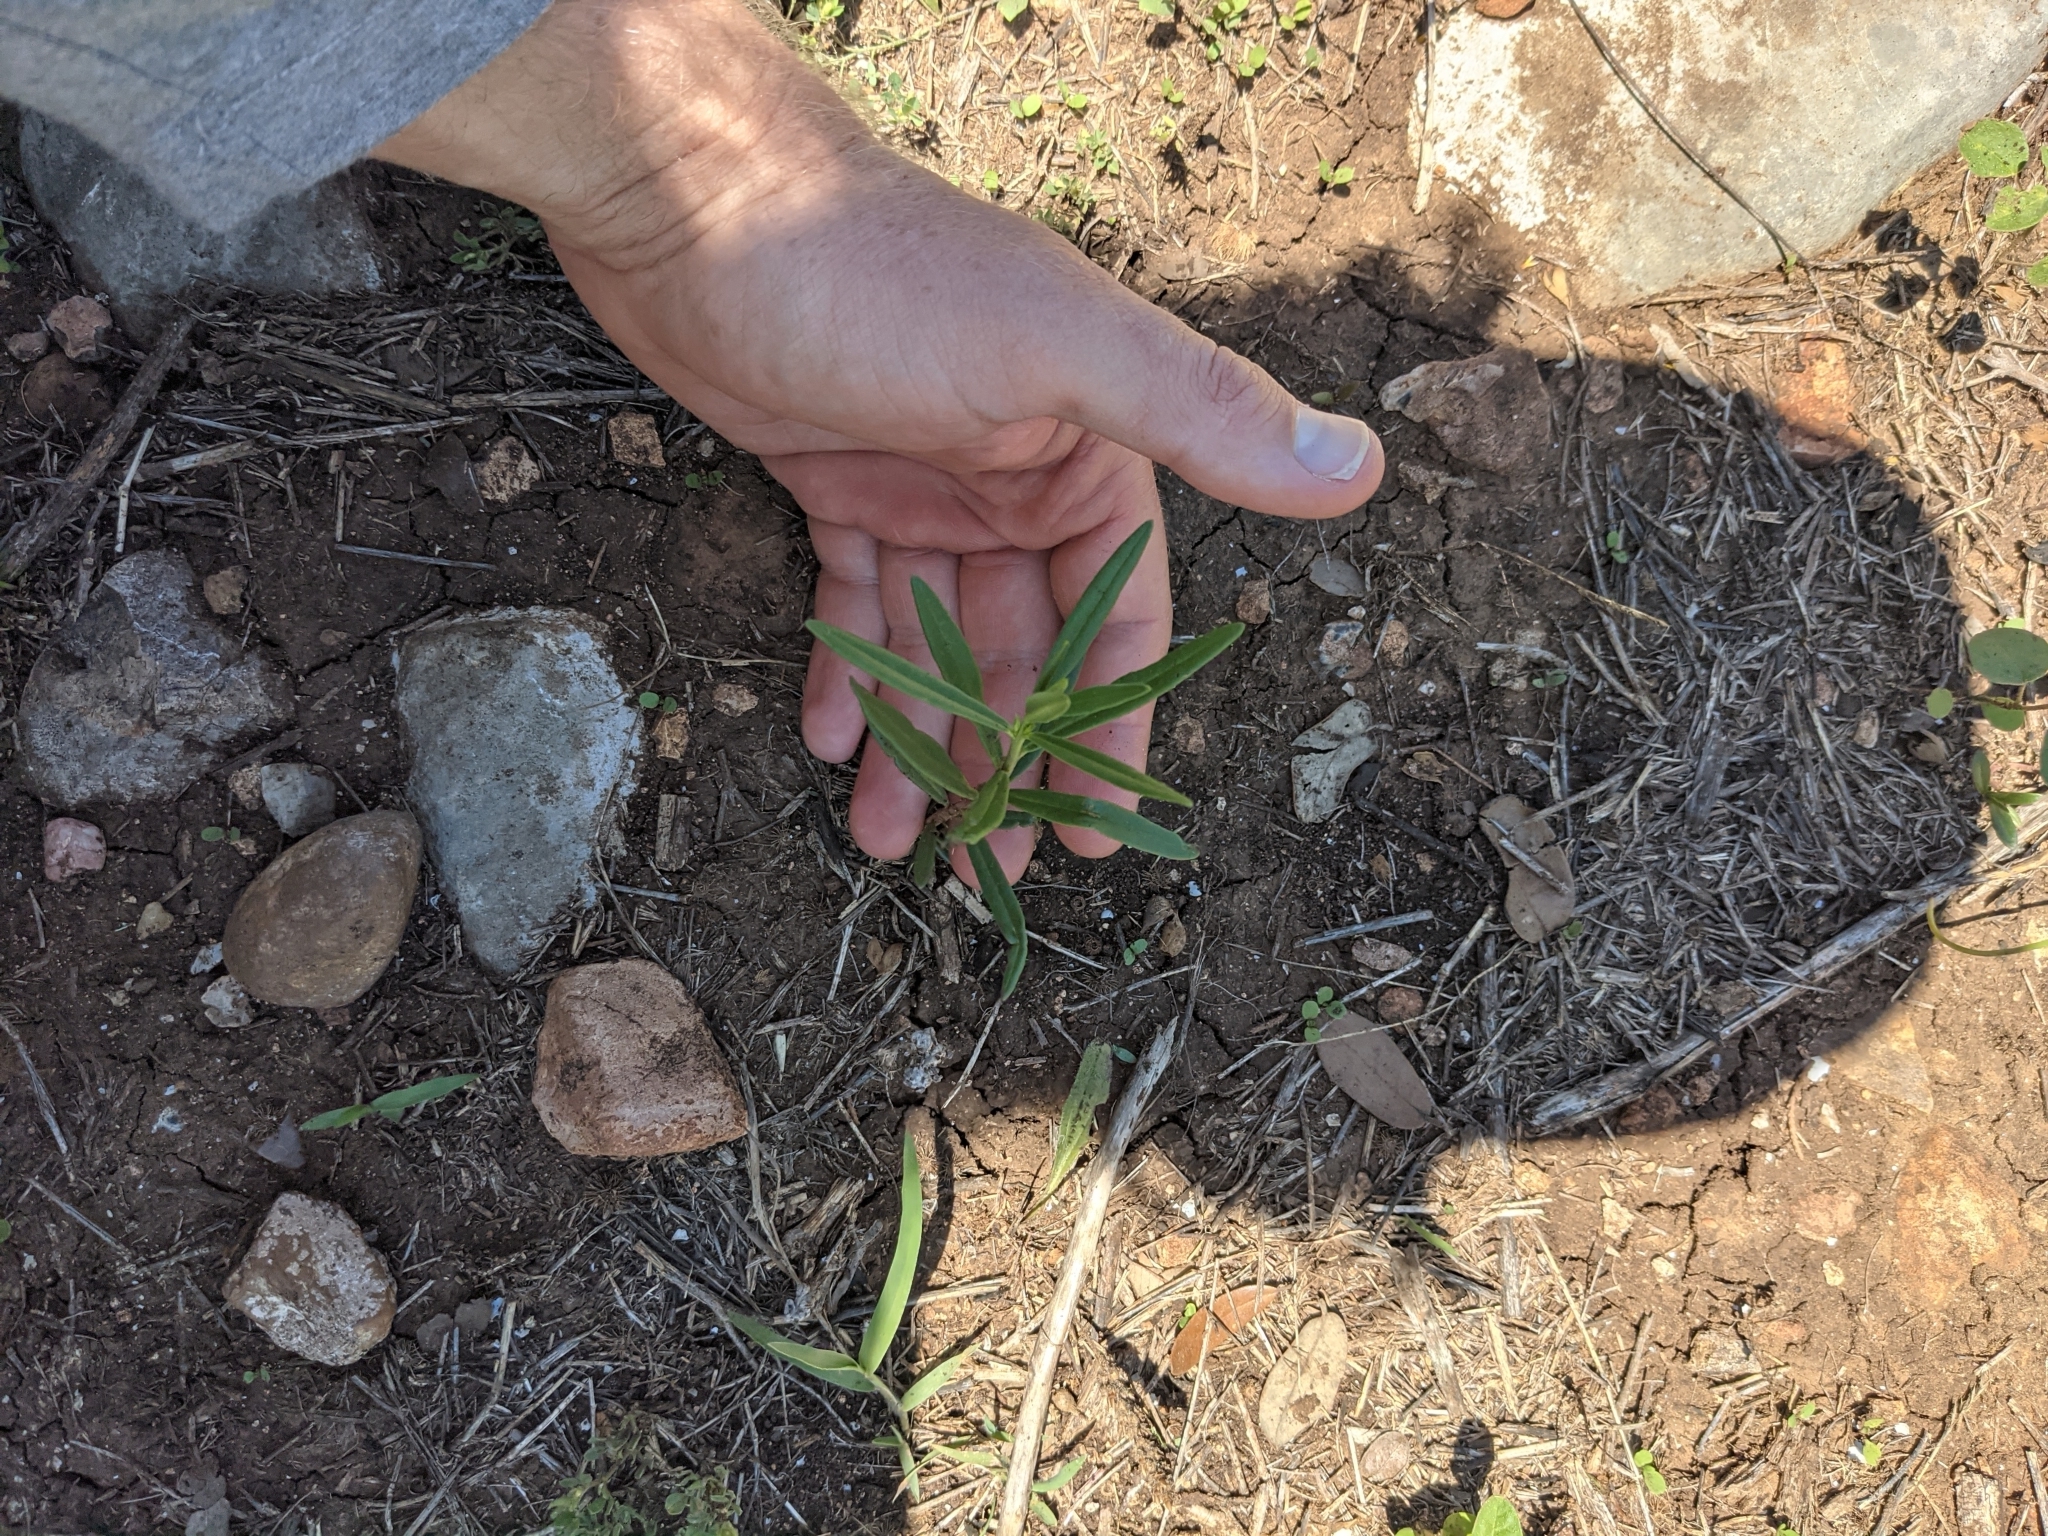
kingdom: Plantae
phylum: Tracheophyta
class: Magnoliopsida
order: Caryophyllales
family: Montiaceae
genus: Phemeranthus
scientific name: Phemeranthus aurantiacus
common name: Orange fameflower
